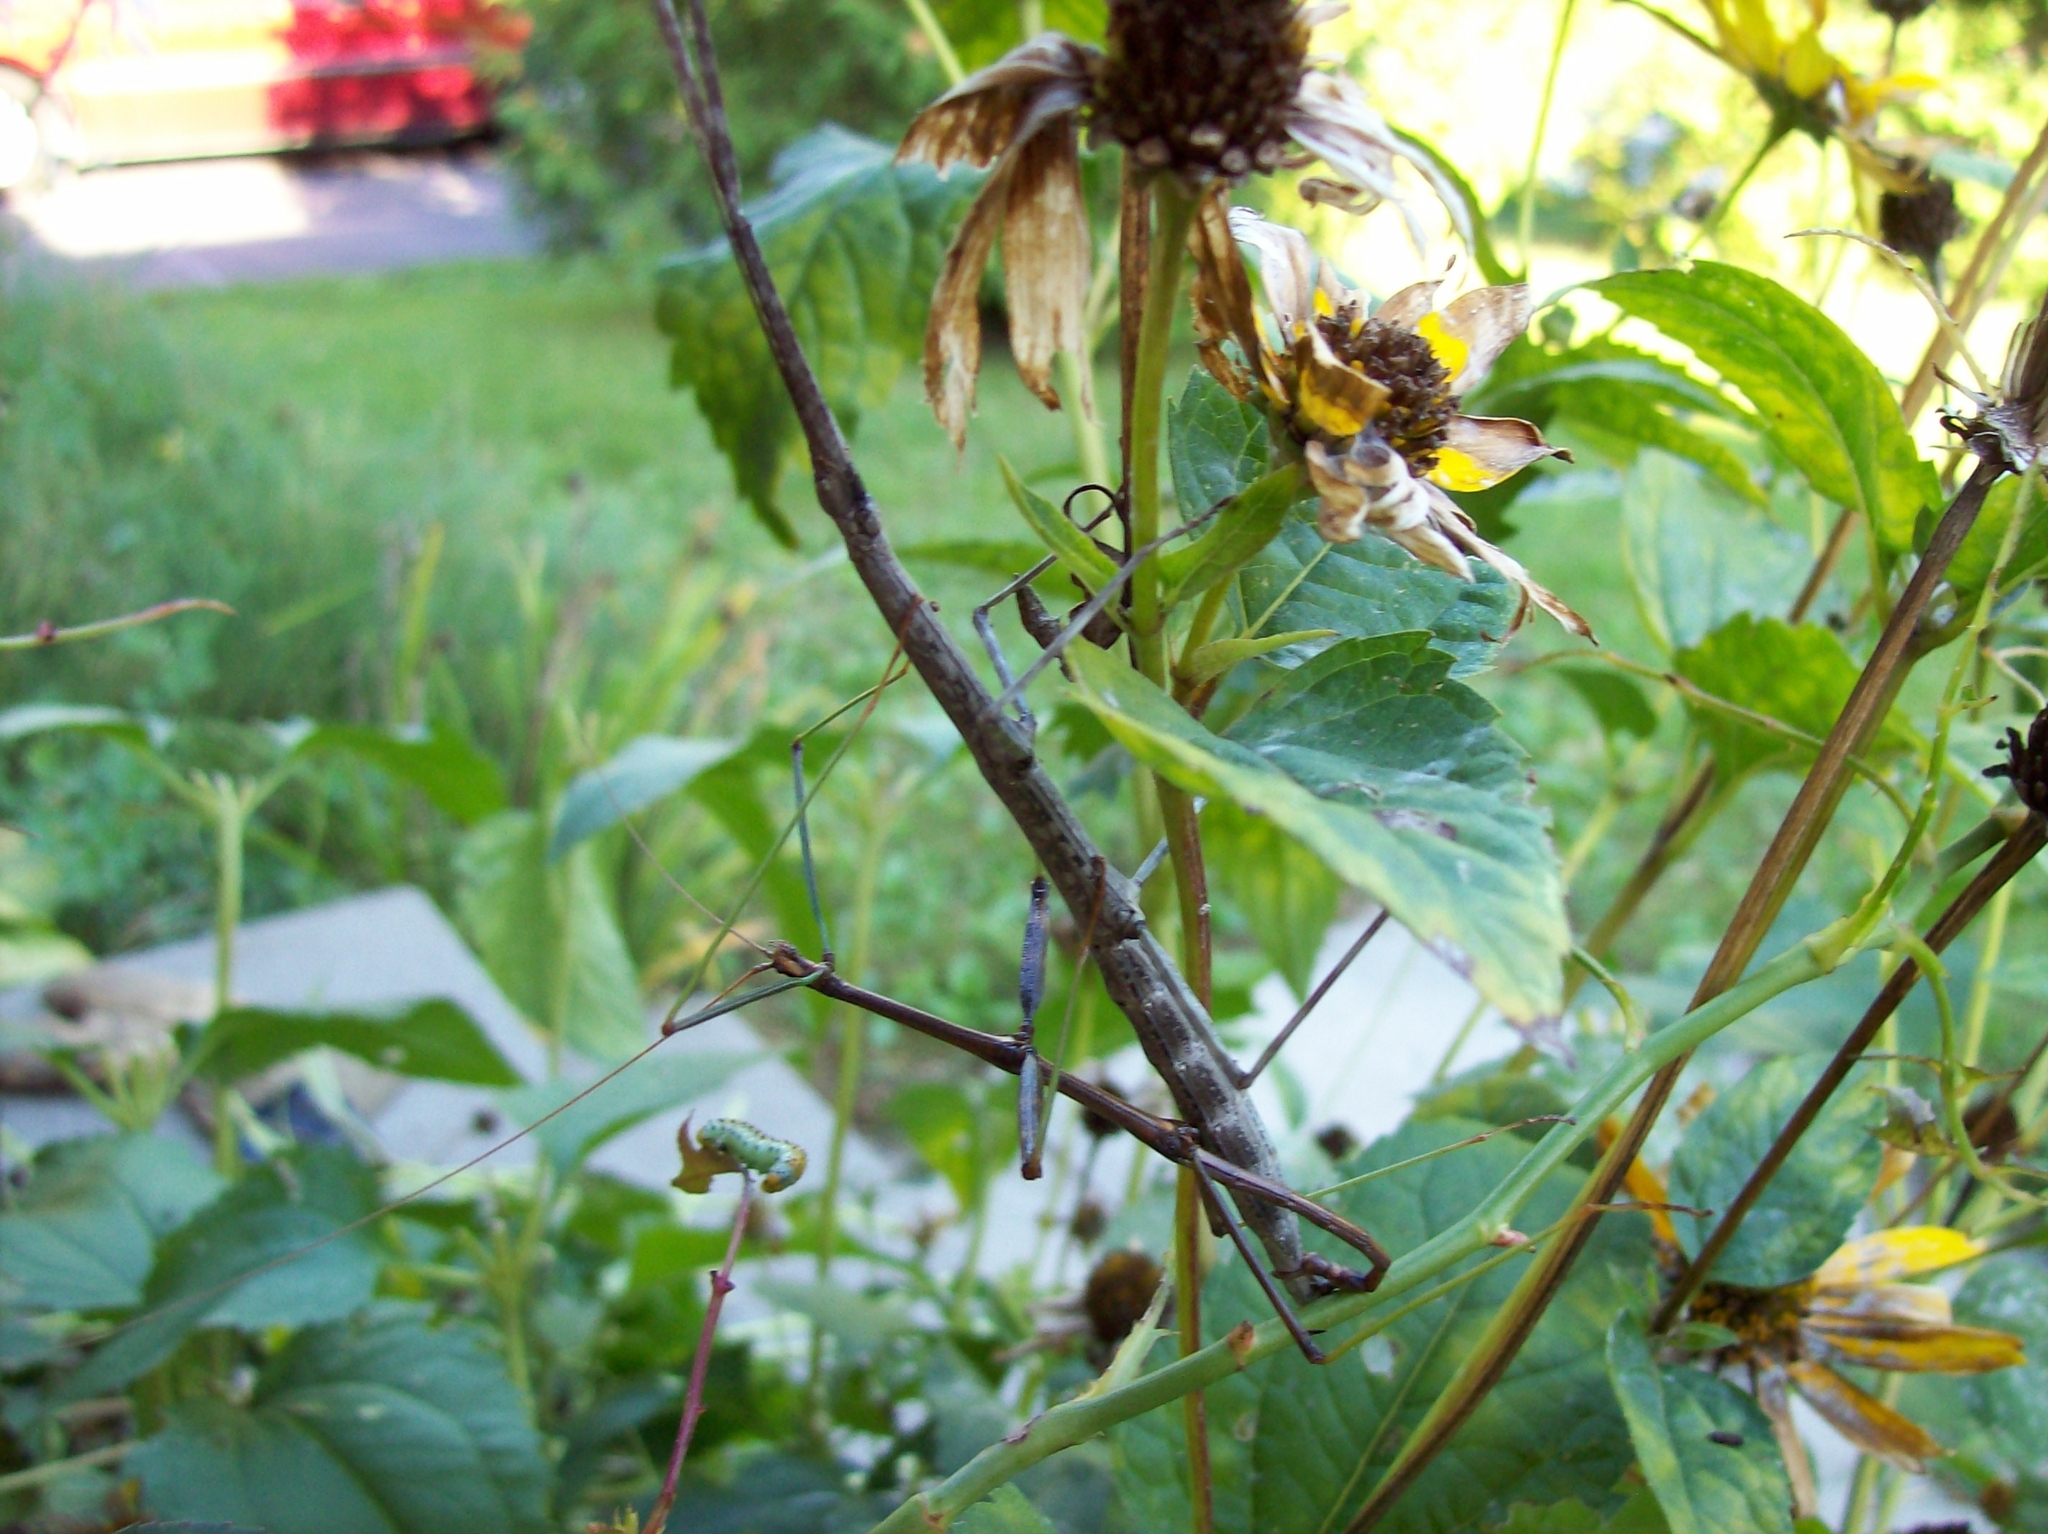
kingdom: Animalia
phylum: Arthropoda
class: Insecta
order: Phasmida
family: Diapheromeridae
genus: Diapheromera
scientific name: Diapheromera femorata
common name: Common american walkingstick
